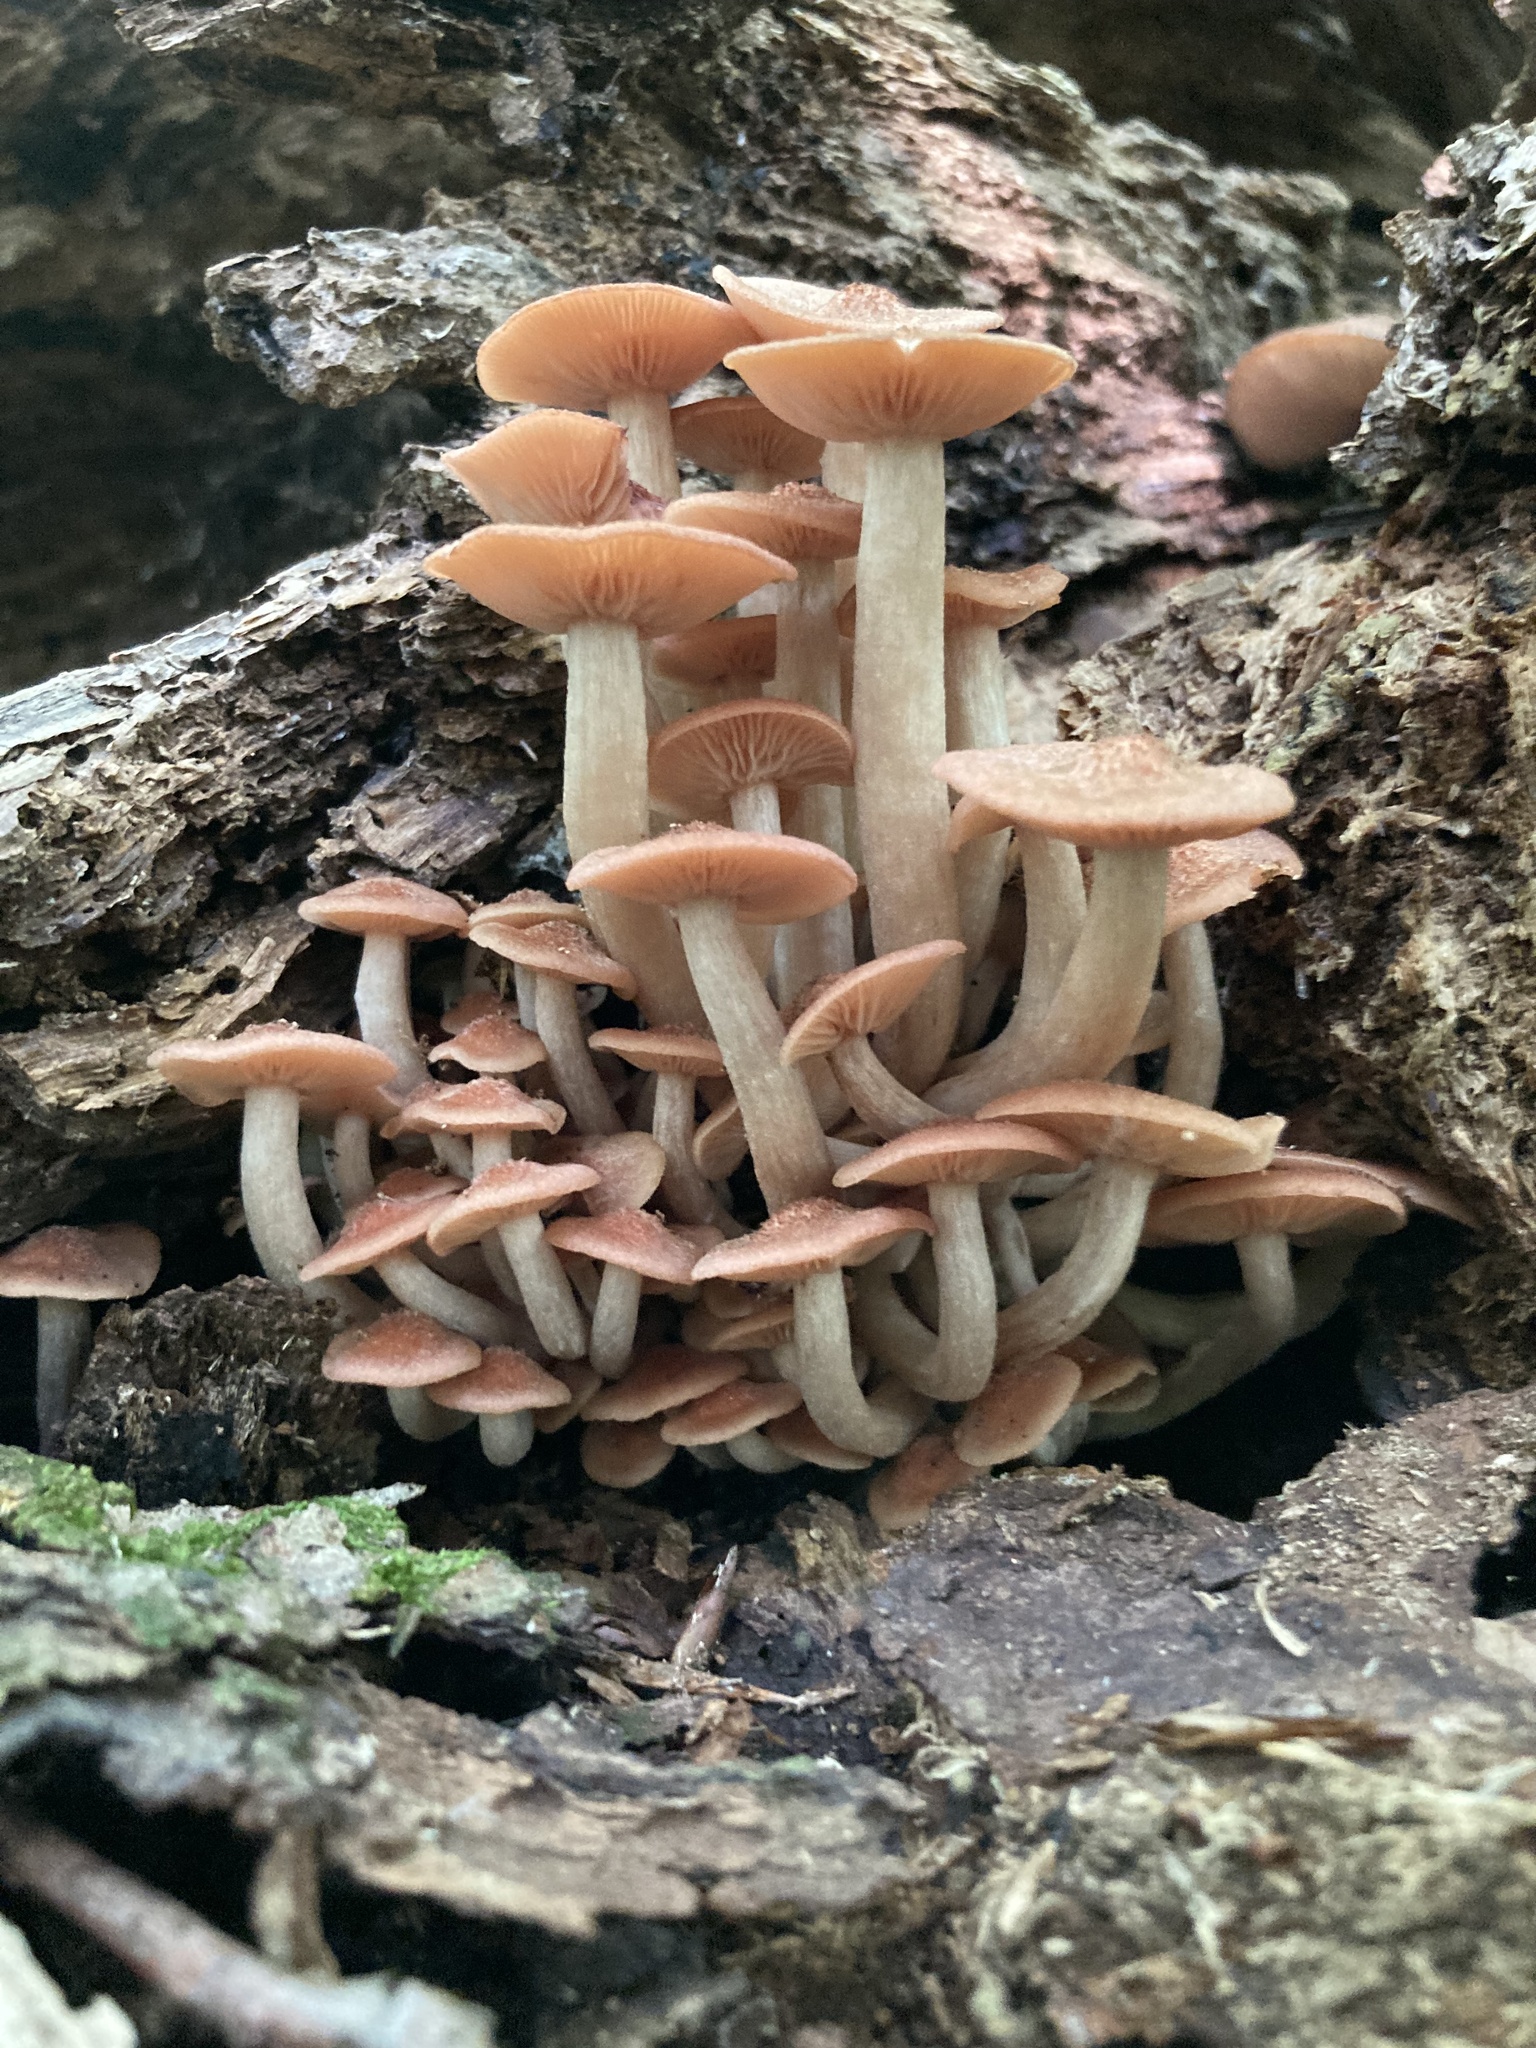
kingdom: Fungi
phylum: Basidiomycota
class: Agaricomycetes
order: Agaricales
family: Physalacriaceae
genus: Desarmillaria
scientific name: Desarmillaria caespitosa
